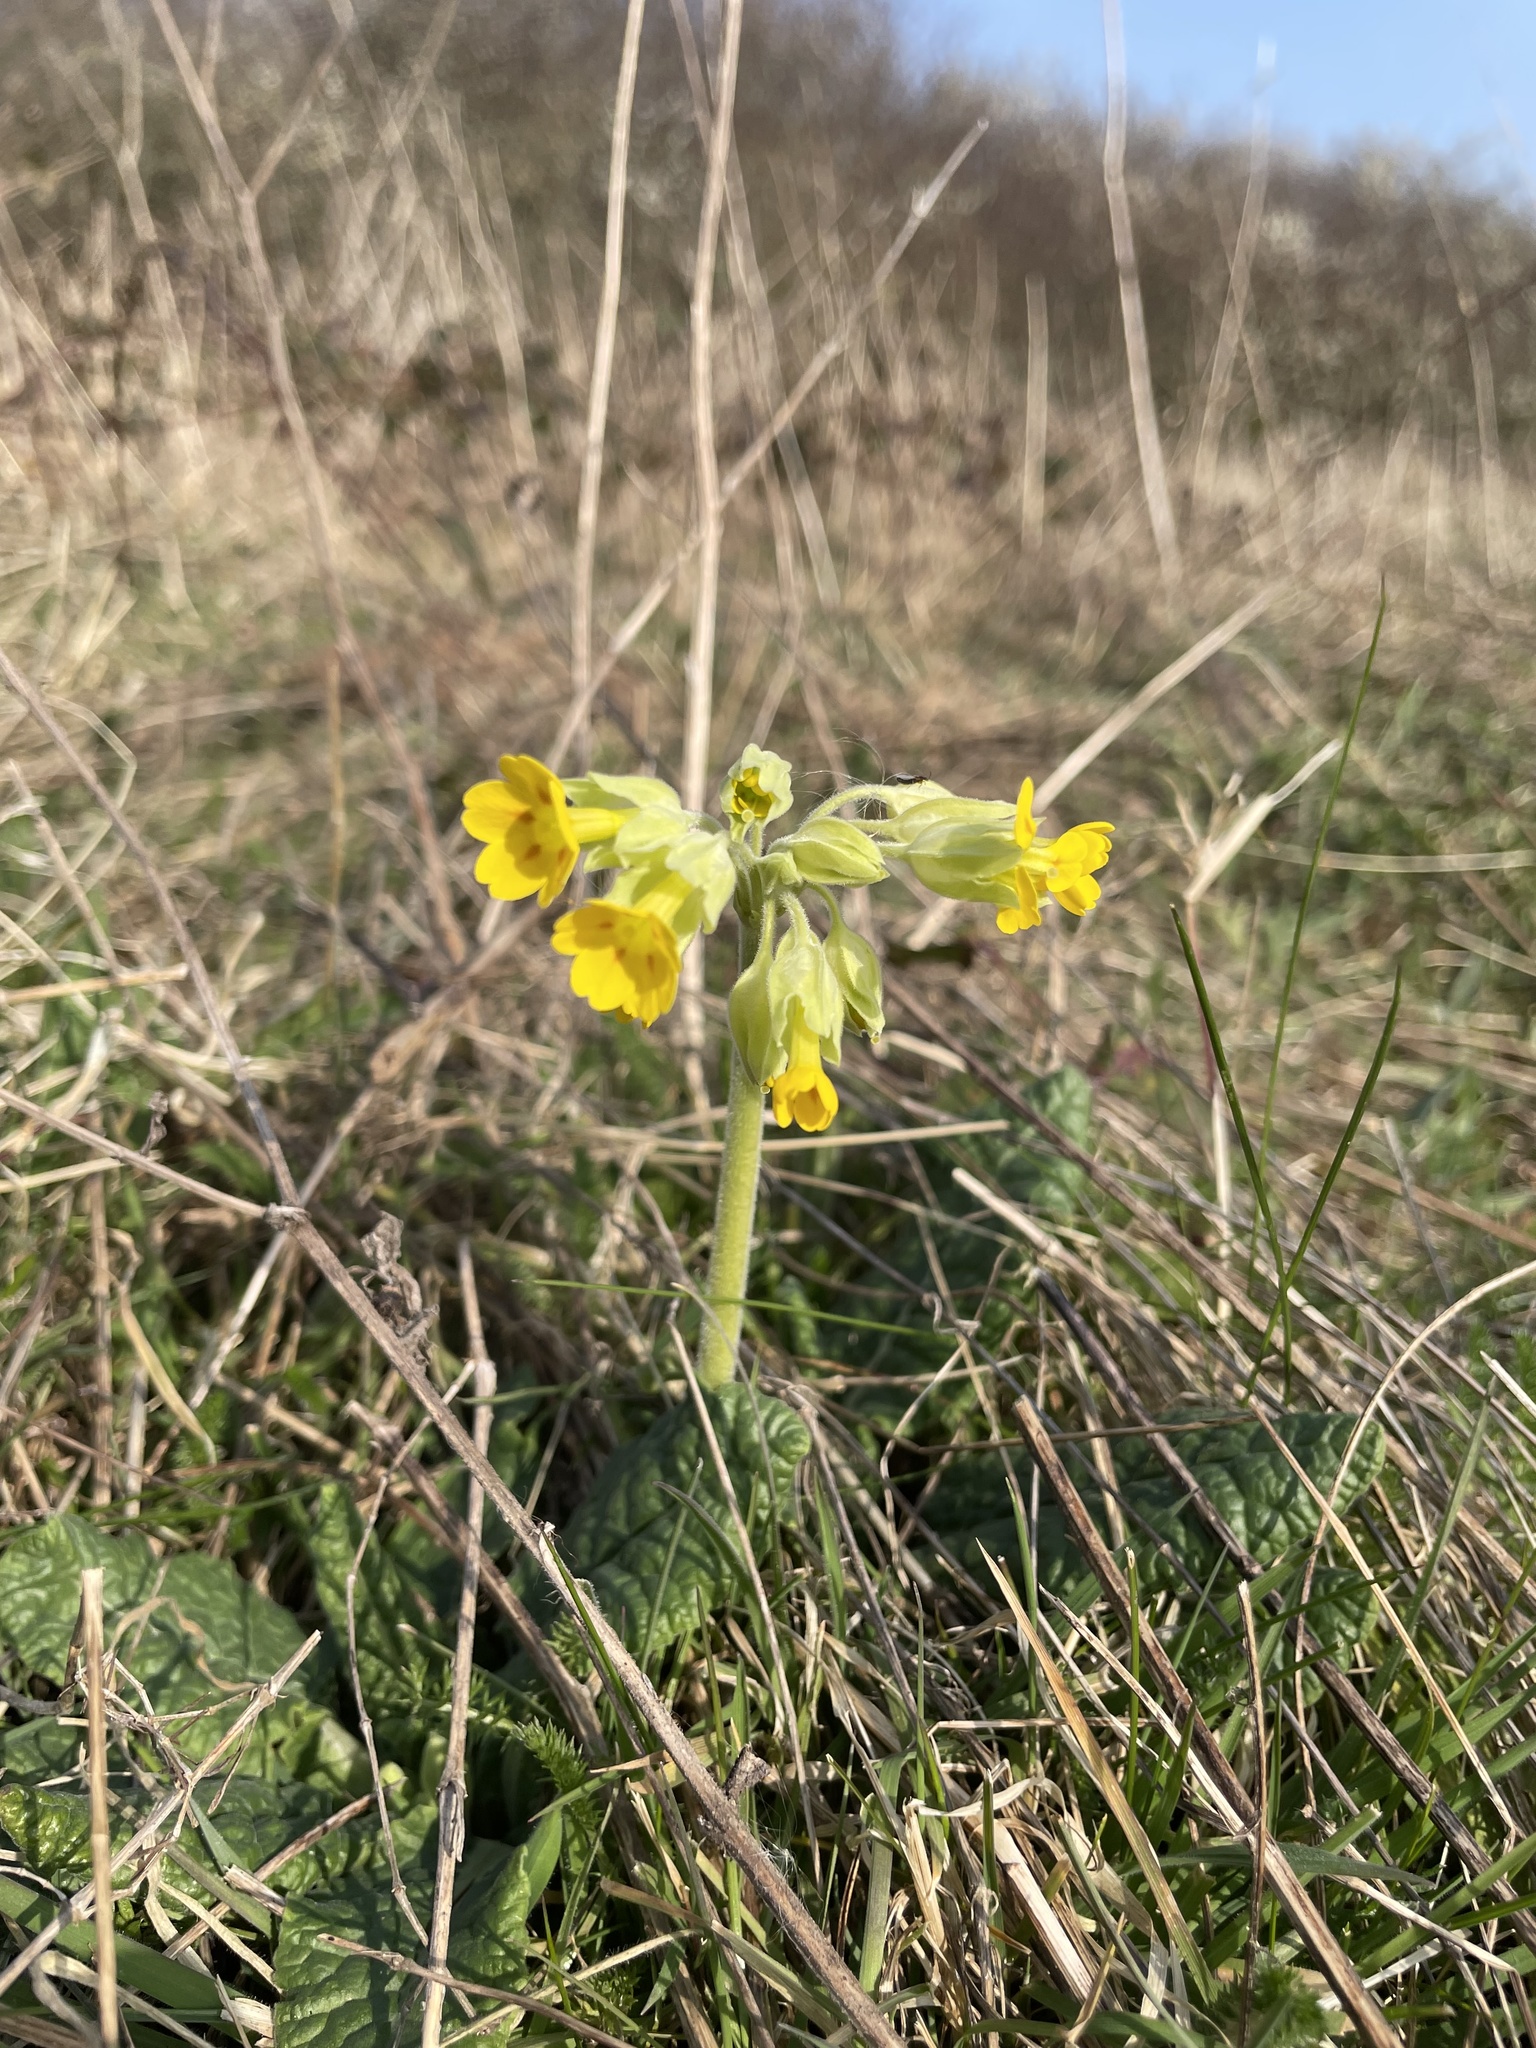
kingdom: Plantae
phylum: Tracheophyta
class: Magnoliopsida
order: Ericales
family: Primulaceae
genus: Primula
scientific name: Primula veris
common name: Cowslip
